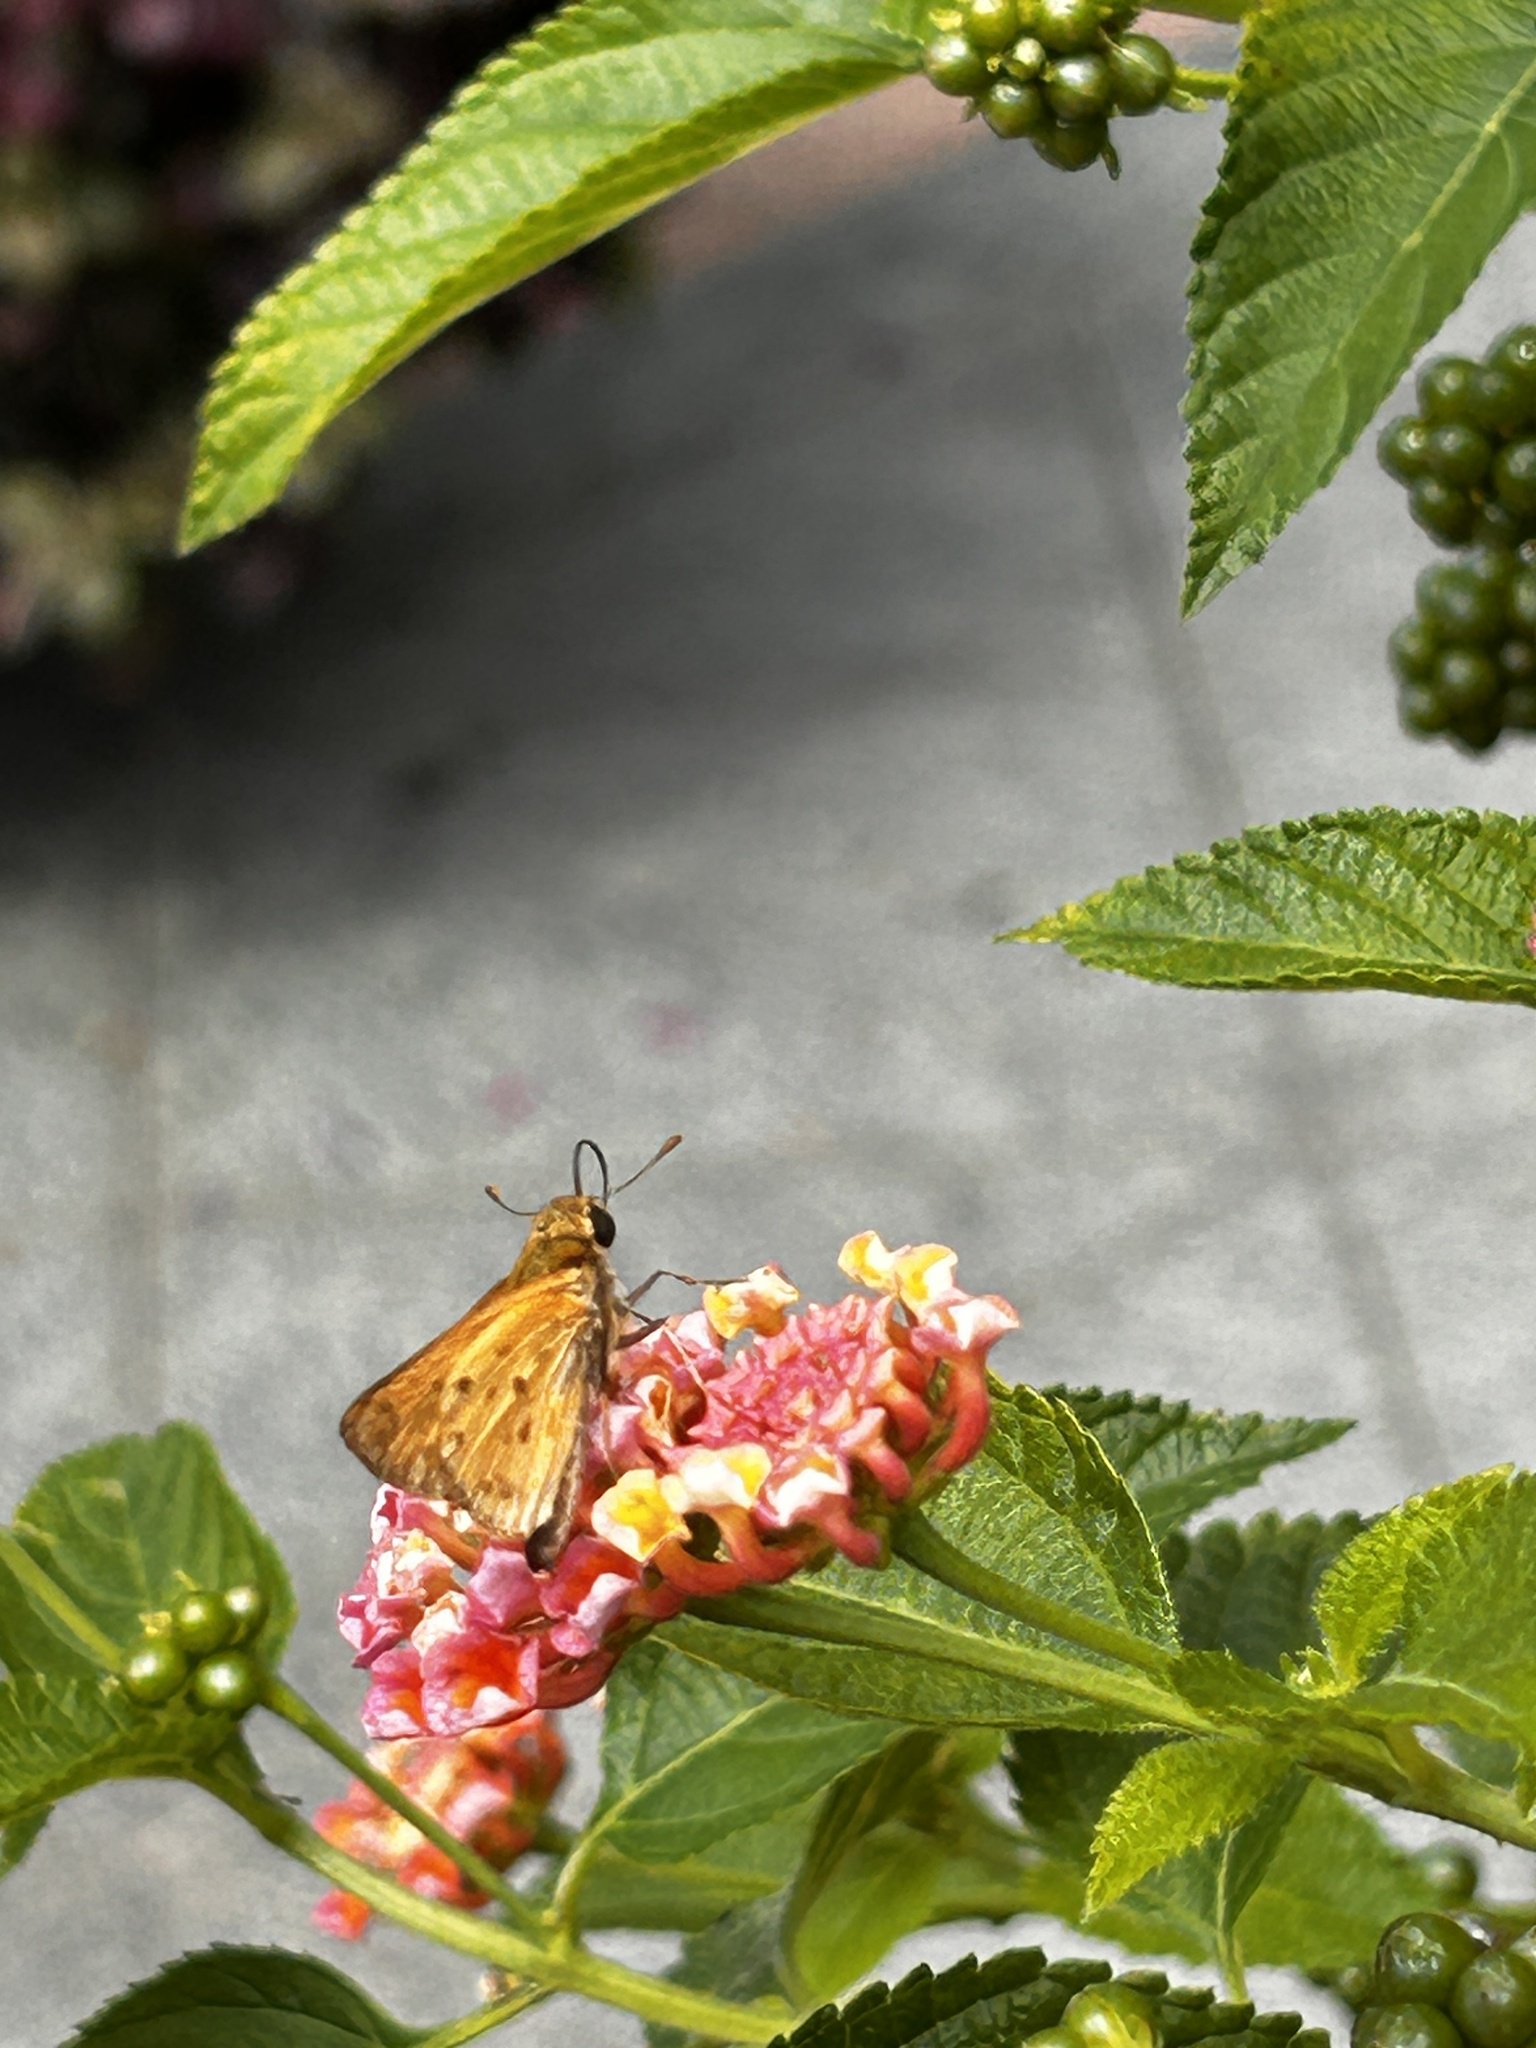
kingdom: Animalia
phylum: Arthropoda
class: Insecta
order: Lepidoptera
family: Hesperiidae
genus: Hylephila
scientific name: Hylephila phyleus
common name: Fiery skipper
